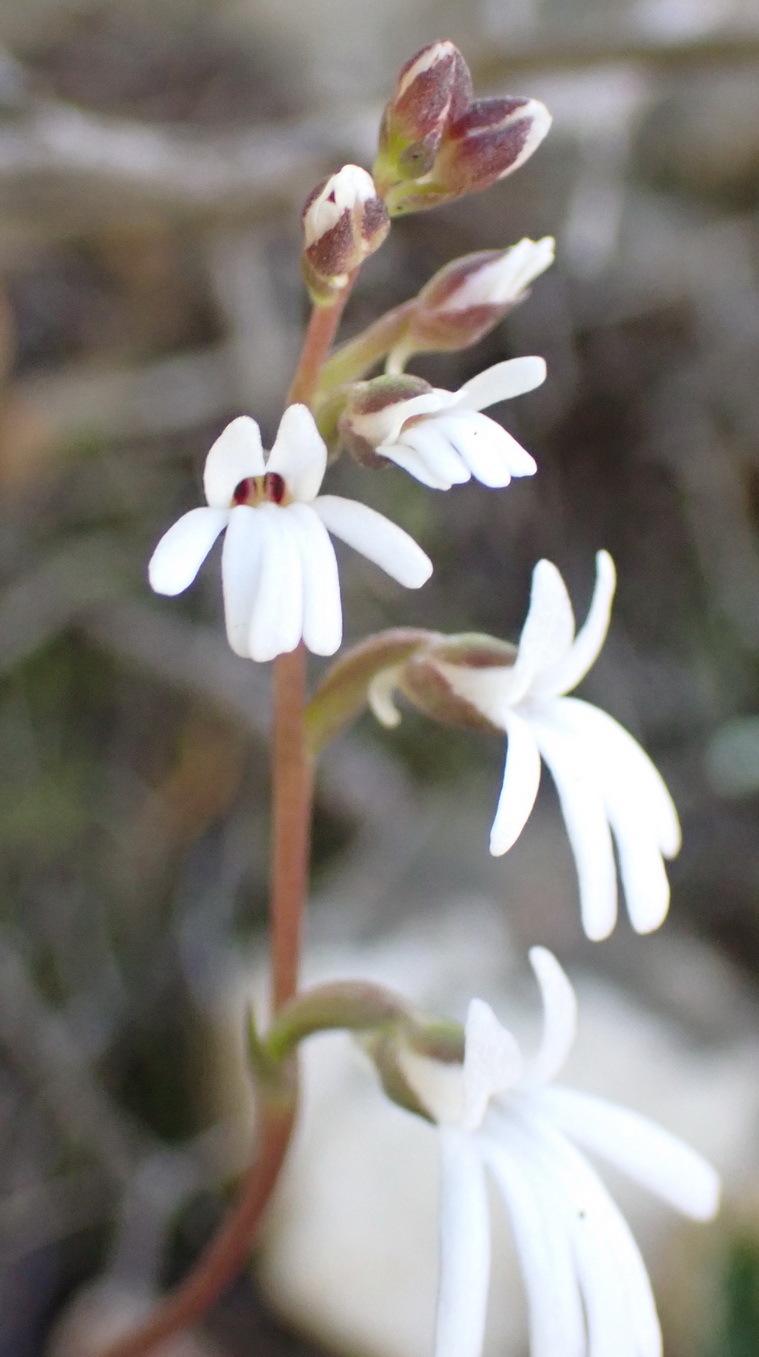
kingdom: Plantae
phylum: Tracheophyta
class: Liliopsida
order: Asparagales
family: Orchidaceae
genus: Holothrix
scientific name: Holothrix parviflora
